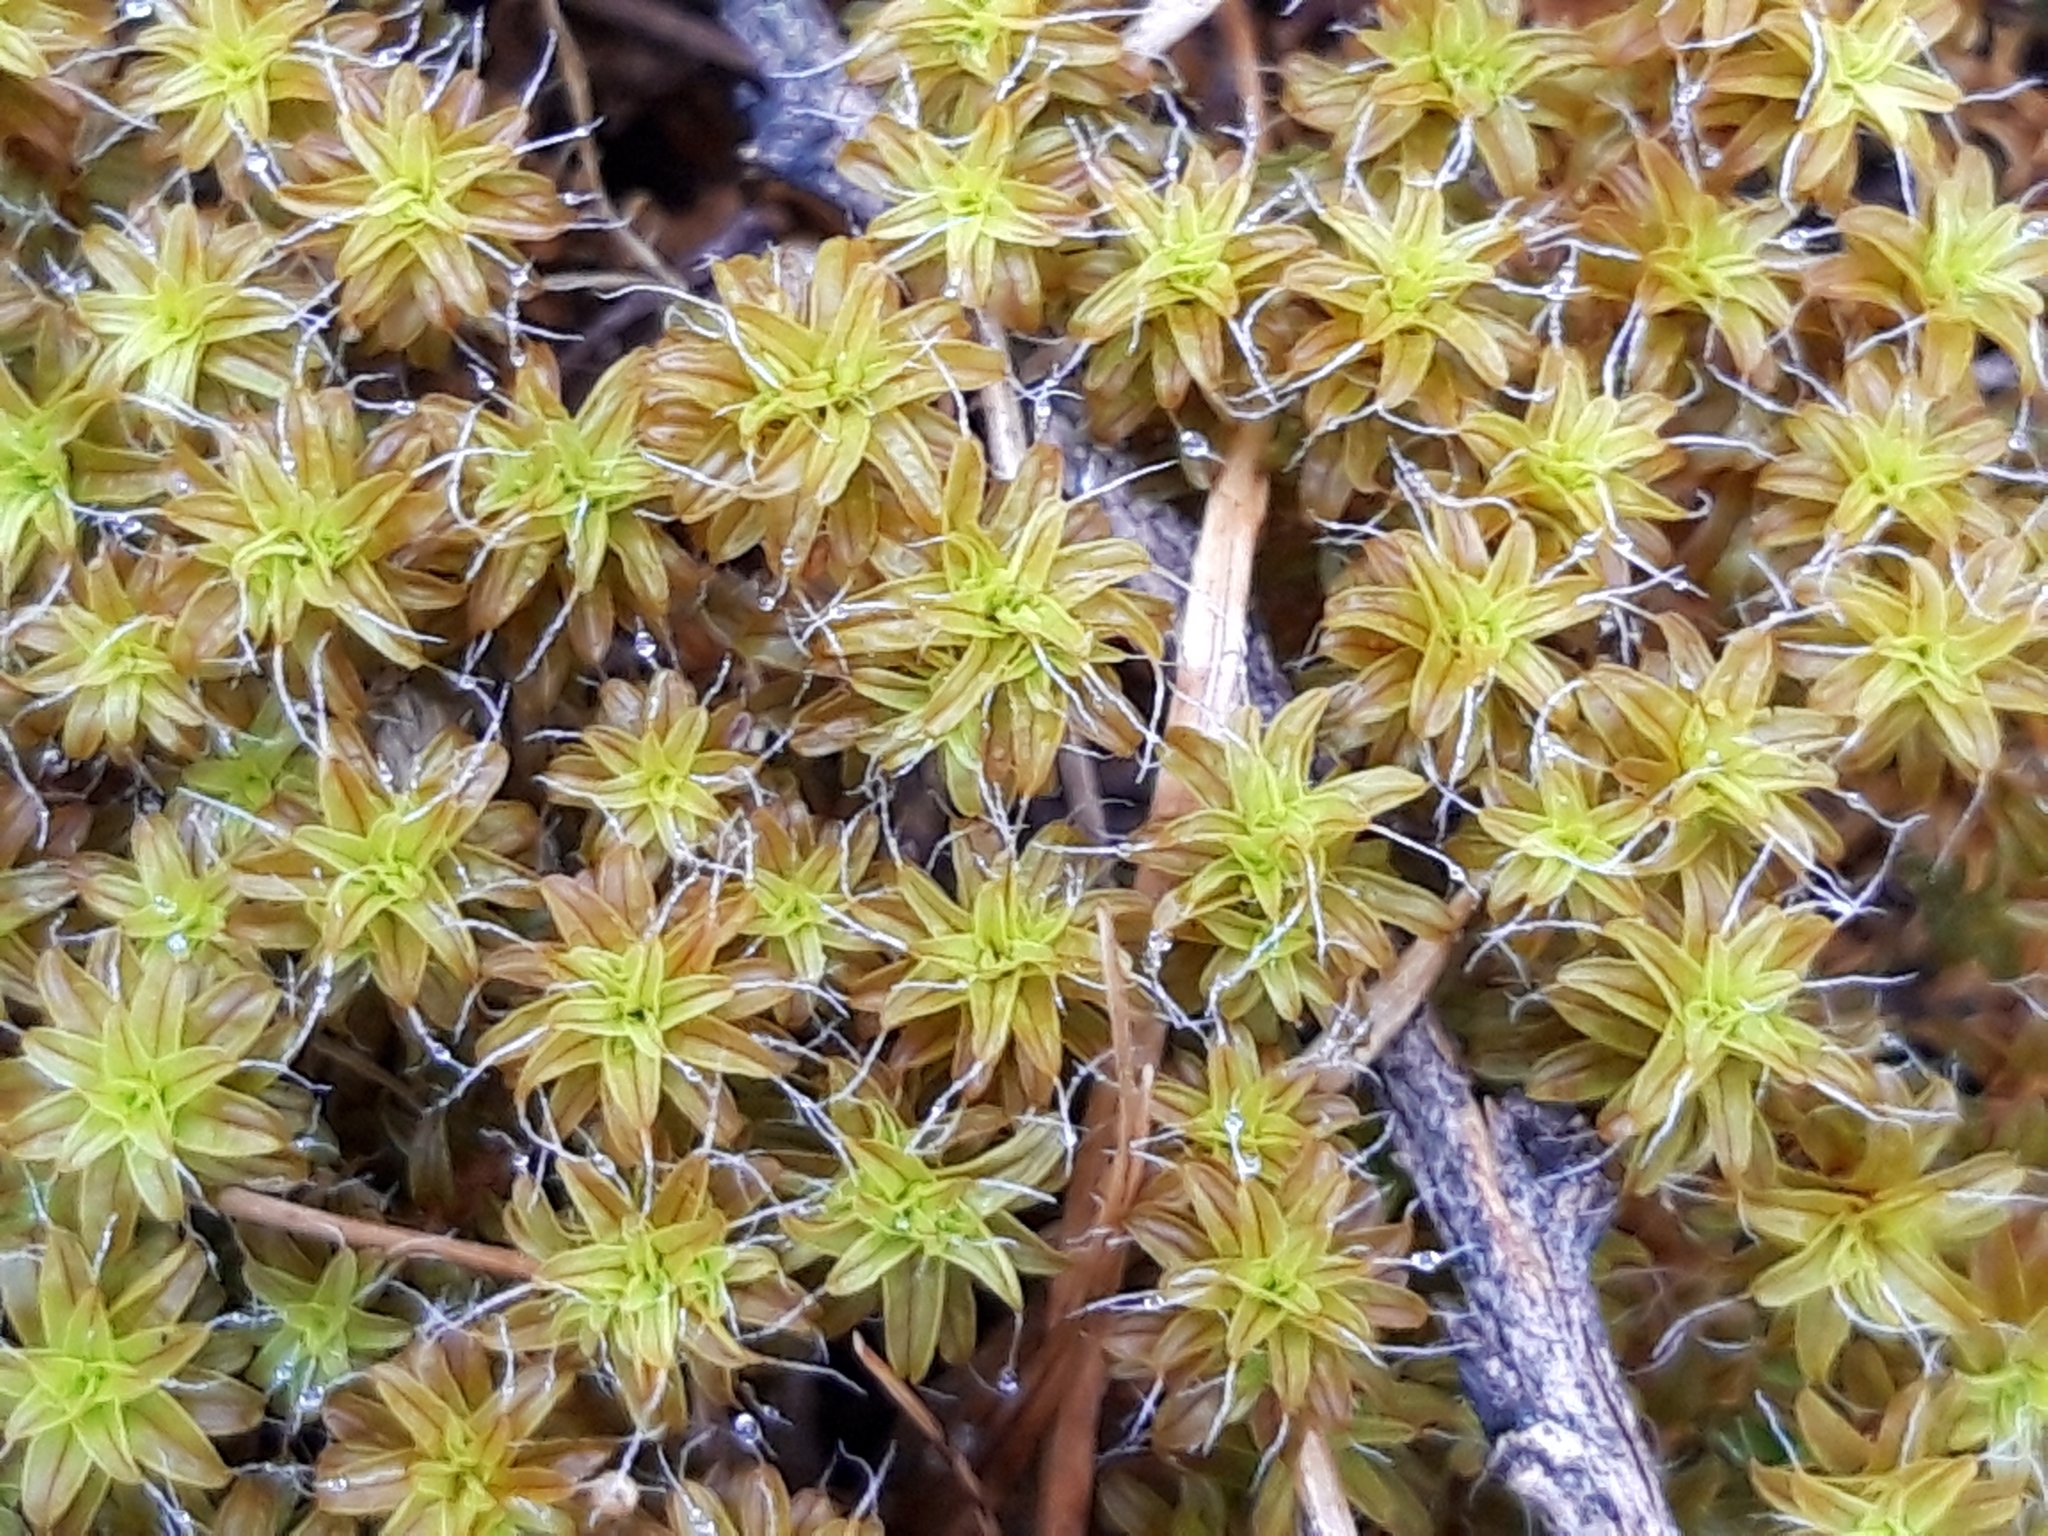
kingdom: Plantae
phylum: Bryophyta
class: Bryopsida
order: Pottiales
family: Pottiaceae
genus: Syntrichia
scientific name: Syntrichia ruralis
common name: Sidewalk screw moss
